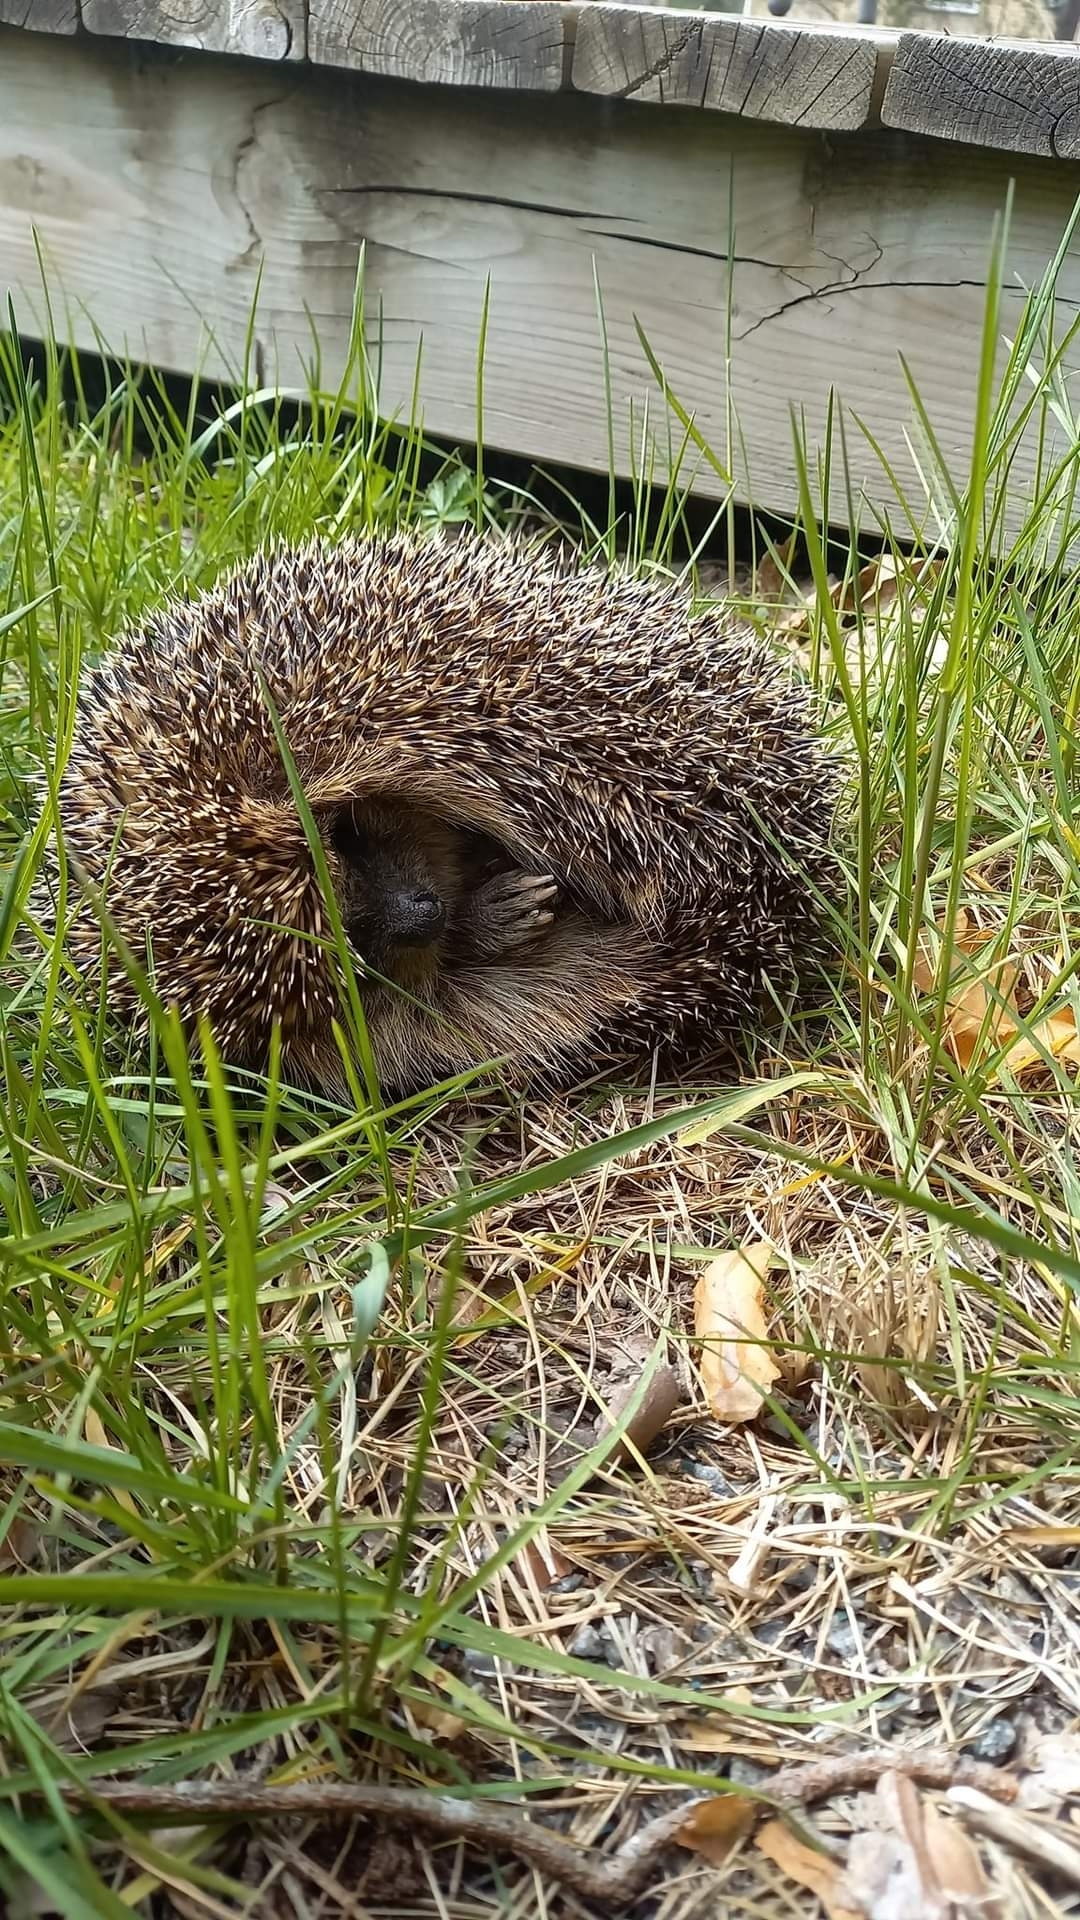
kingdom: Animalia
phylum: Chordata
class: Mammalia
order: Erinaceomorpha
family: Erinaceidae
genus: Erinaceus
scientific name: Erinaceus europaeus
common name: West european hedgehog
